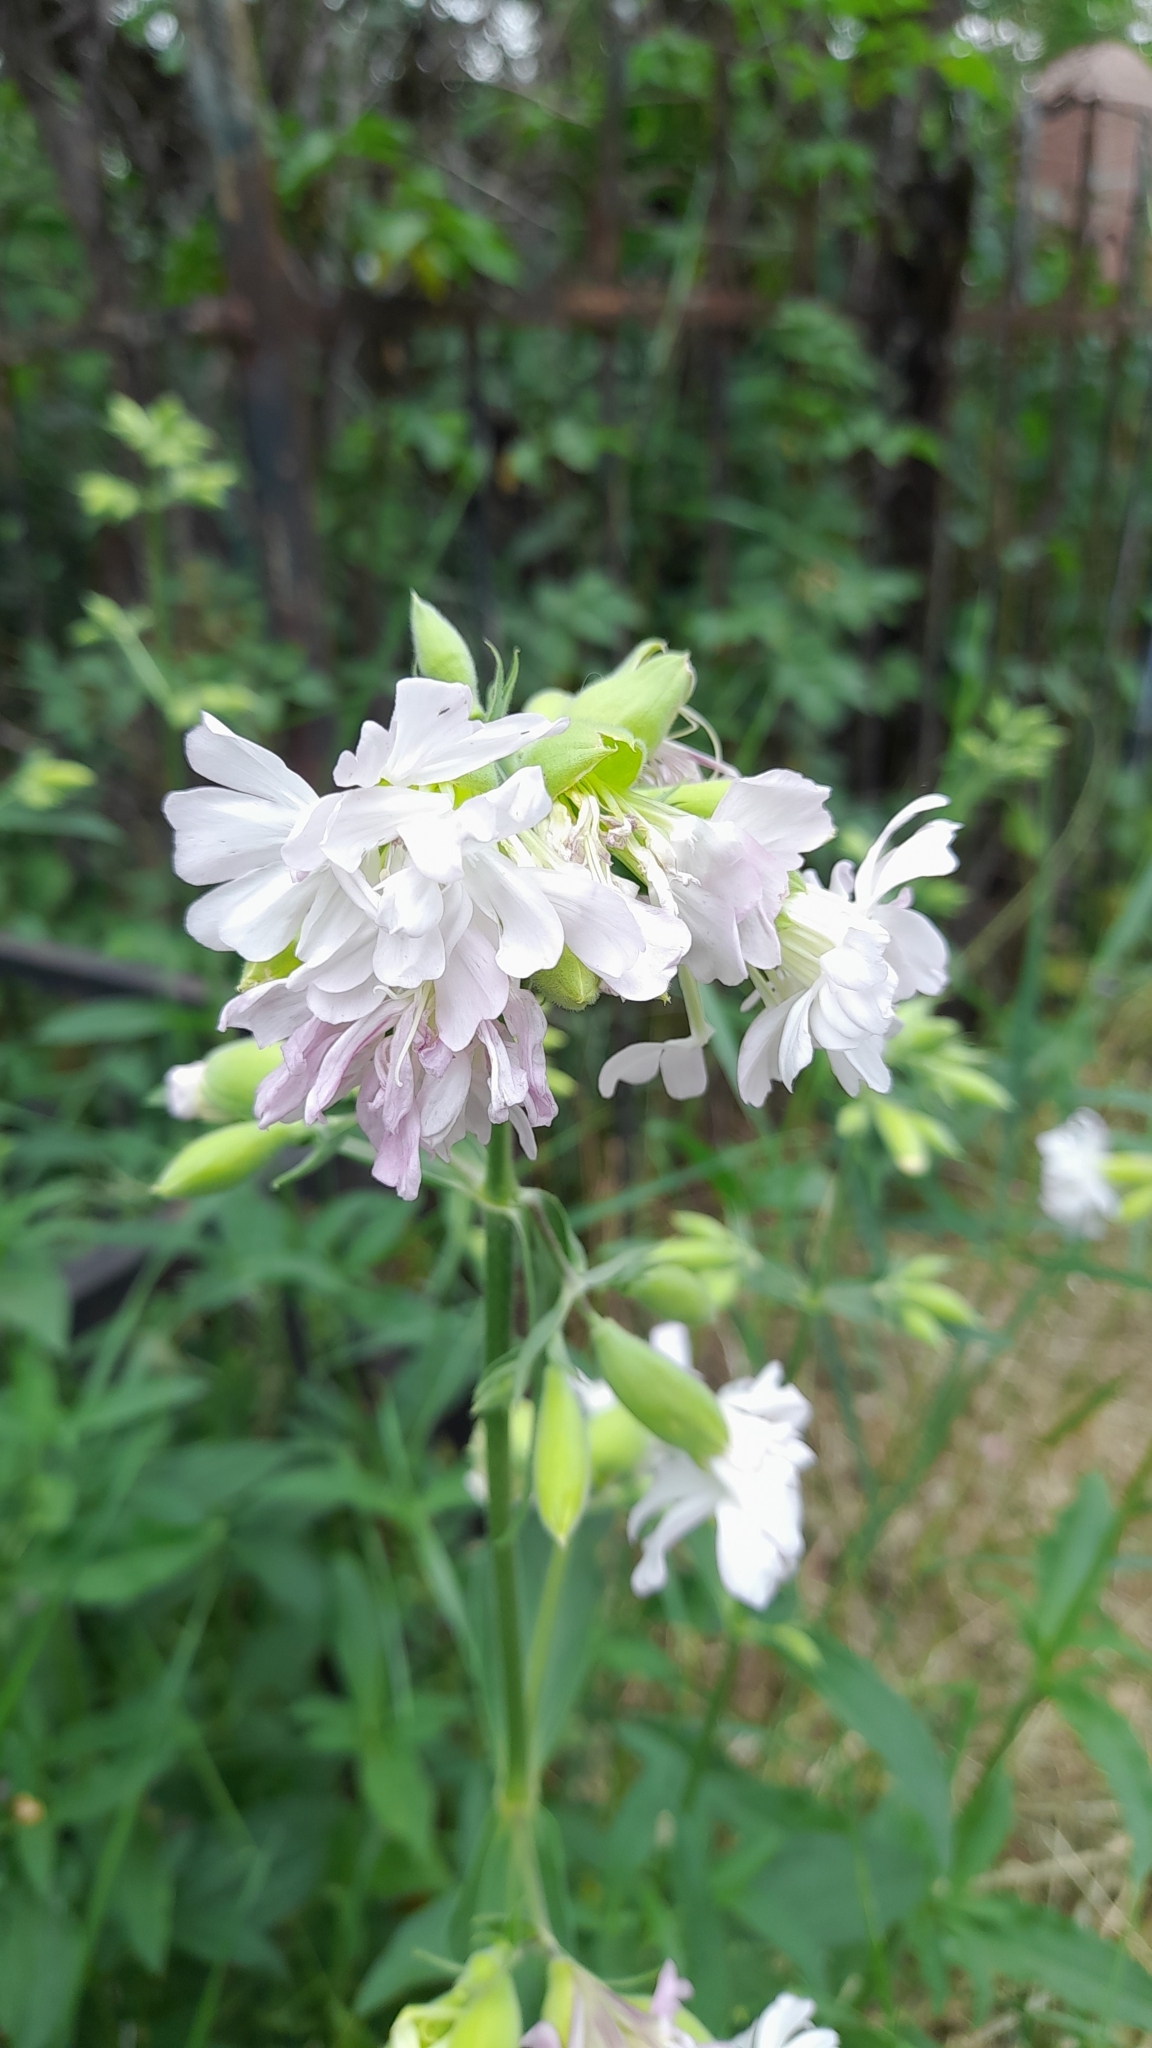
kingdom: Plantae
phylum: Tracheophyta
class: Magnoliopsida
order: Caryophyllales
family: Caryophyllaceae
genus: Saponaria
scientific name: Saponaria officinalis
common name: Soapwort
